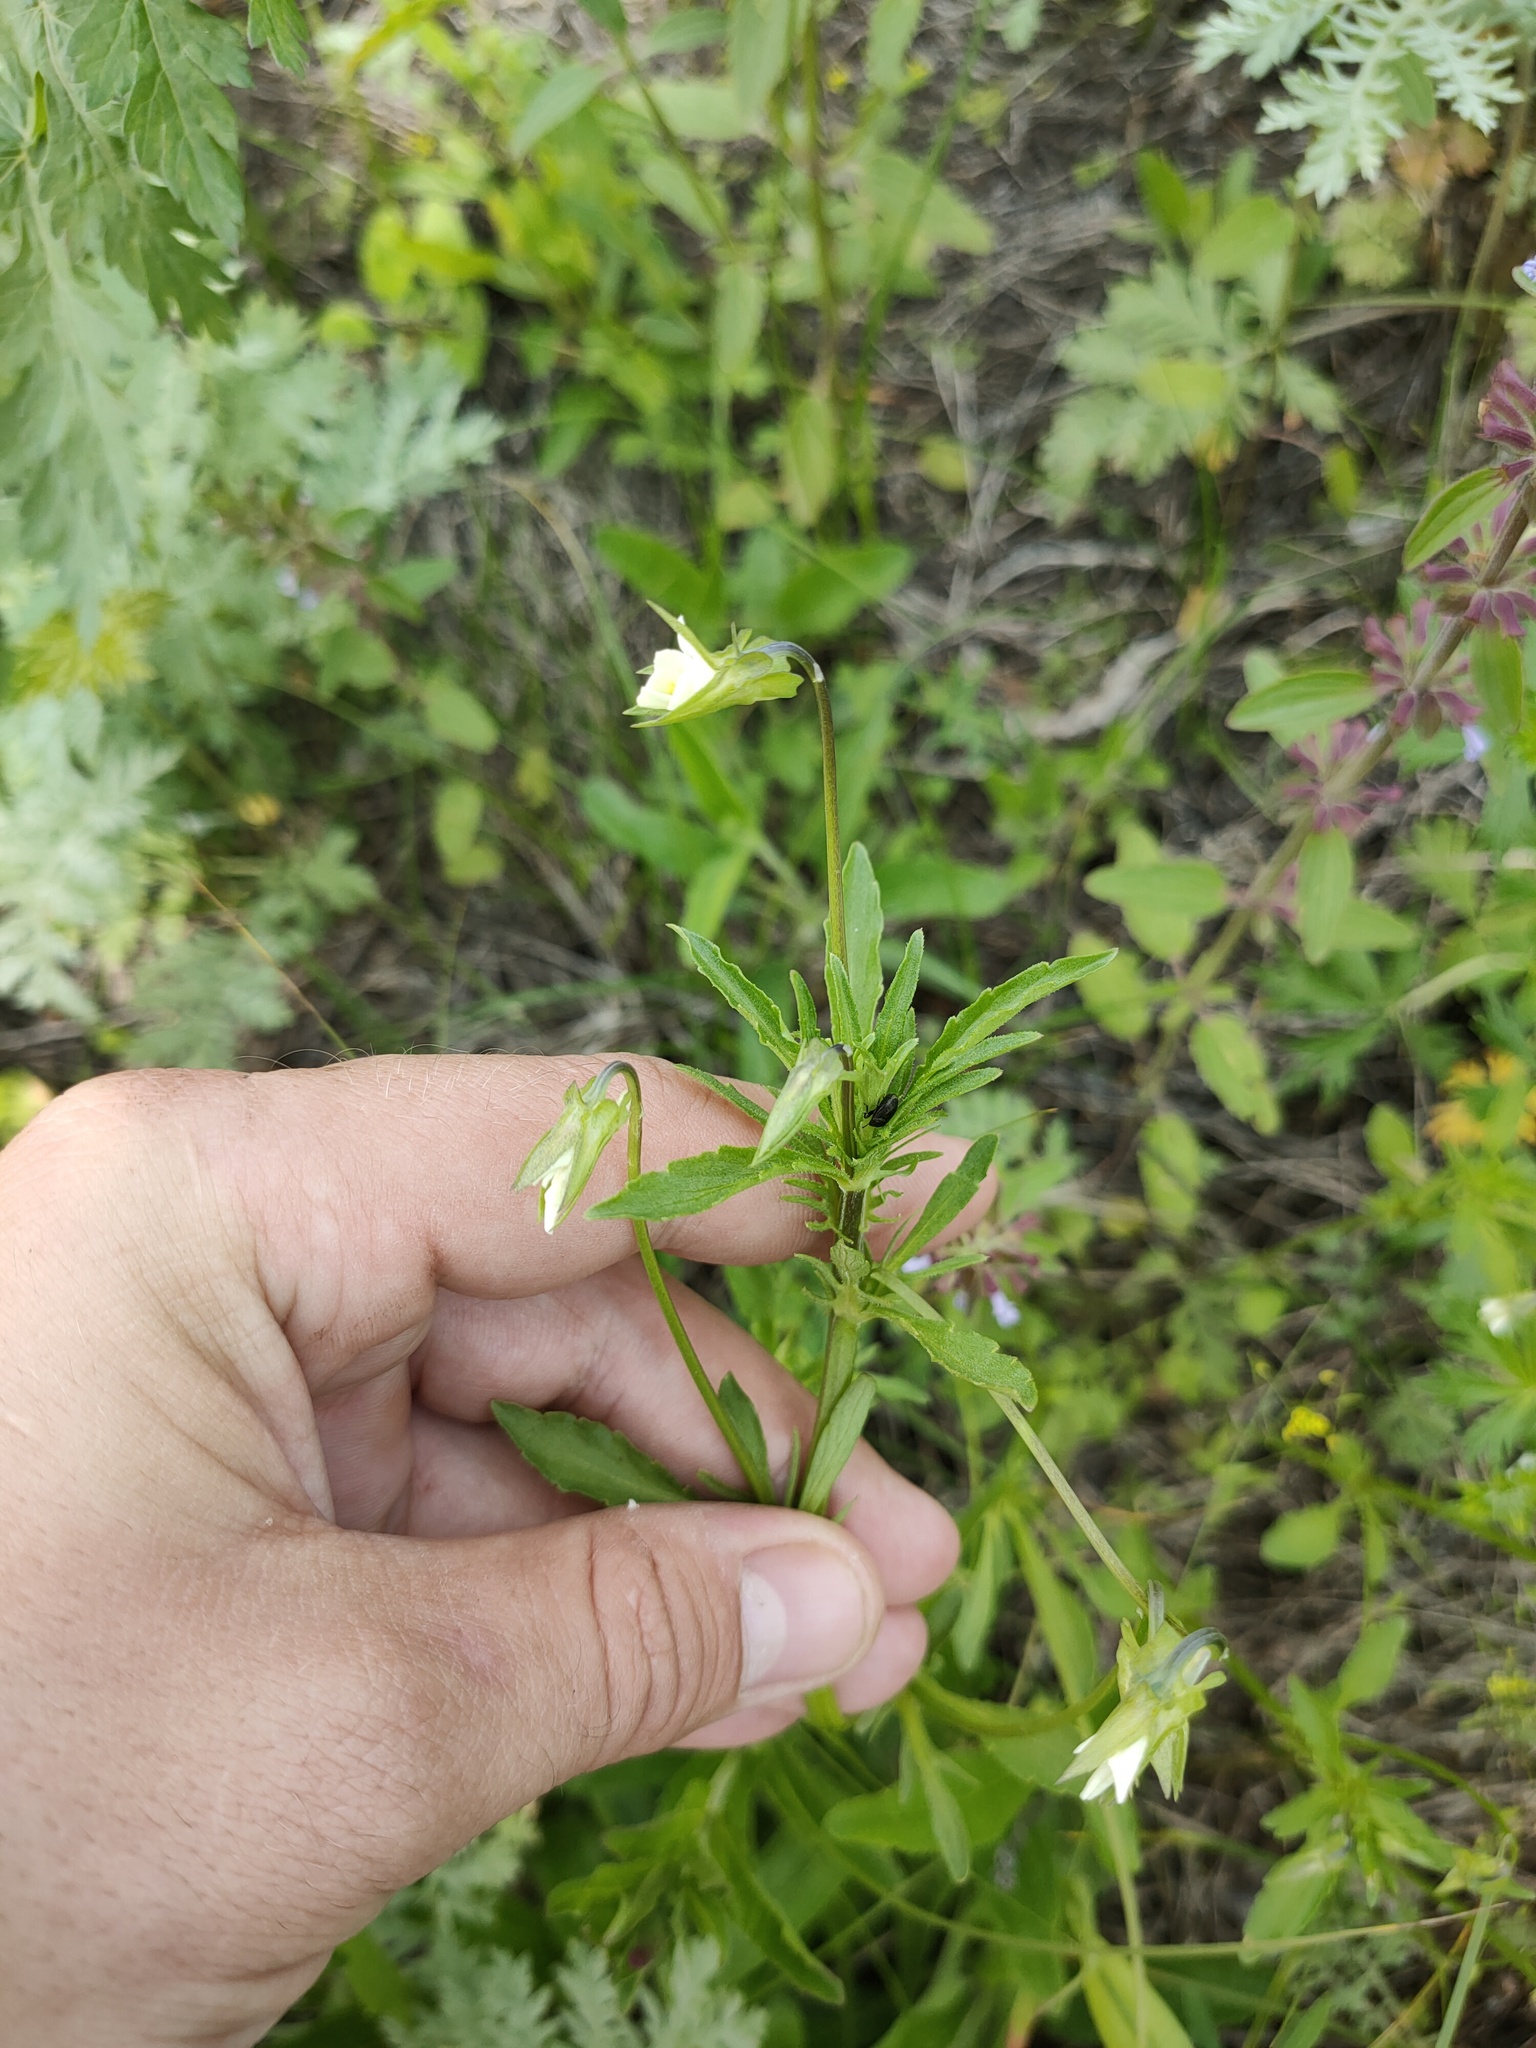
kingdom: Plantae
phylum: Tracheophyta
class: Magnoliopsida
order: Malpighiales
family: Violaceae
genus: Viola
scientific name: Viola arvensis
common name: Field pansy
